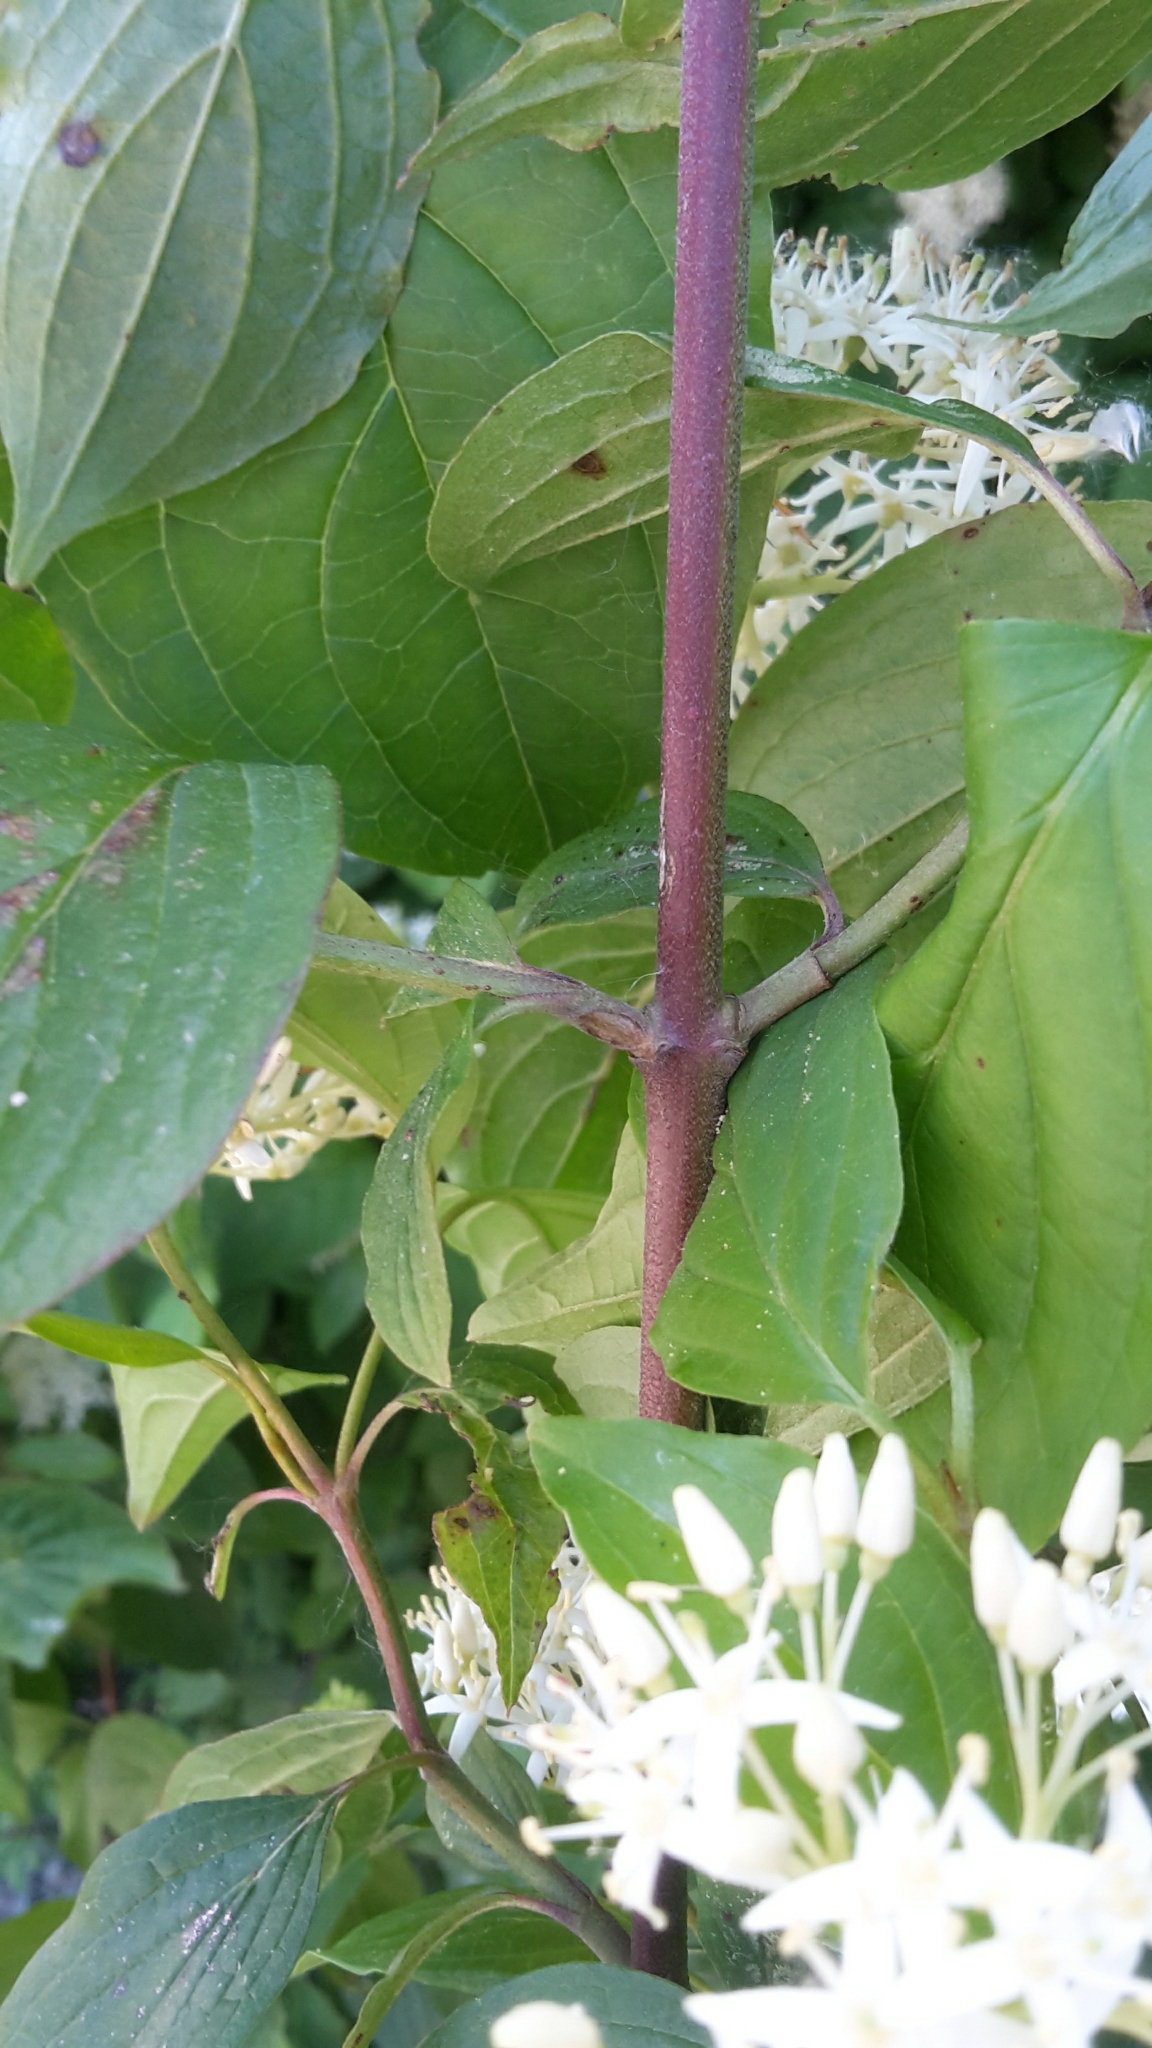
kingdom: Plantae
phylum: Tracheophyta
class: Magnoliopsida
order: Cornales
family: Cornaceae
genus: Cornus
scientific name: Cornus sanguinea
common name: Dogwood
